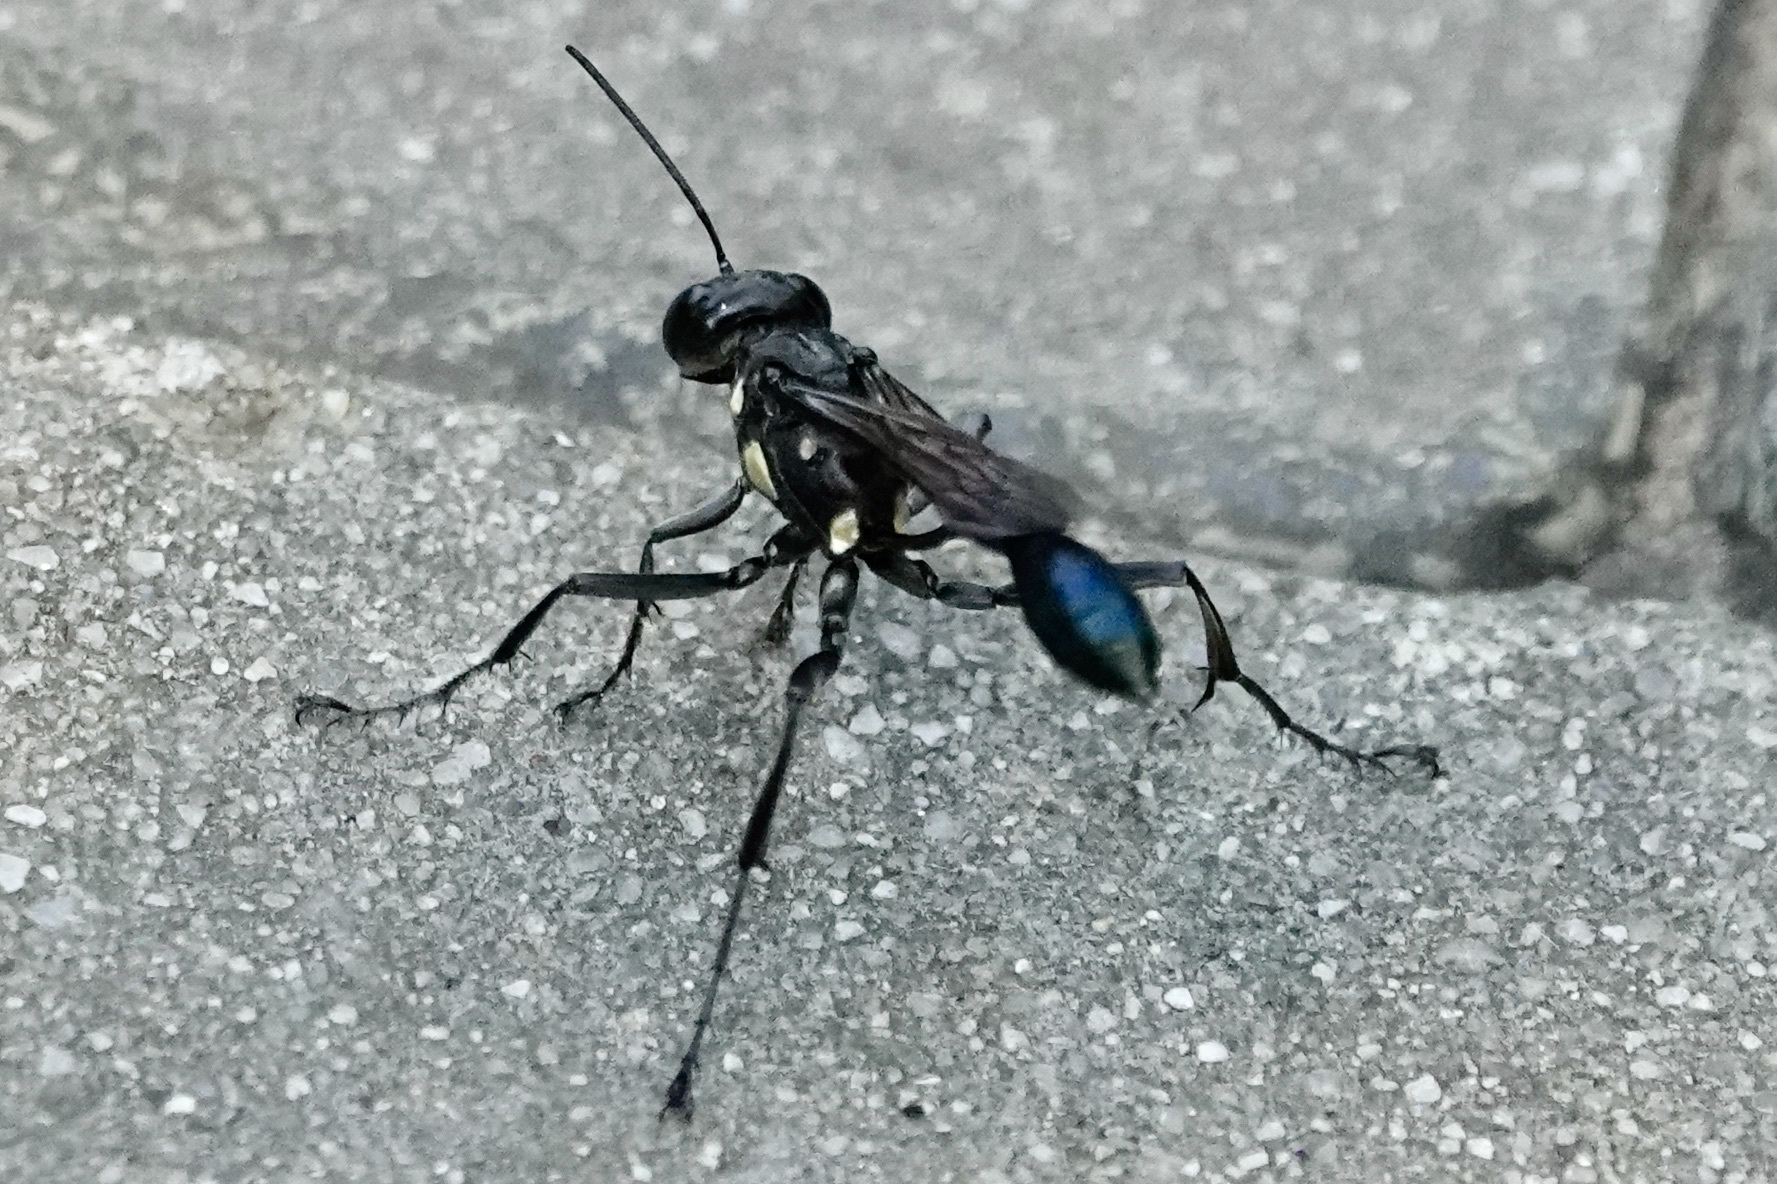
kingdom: Animalia
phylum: Arthropoda
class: Insecta
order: Hymenoptera
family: Sphecidae
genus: Eremnophila
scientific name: Eremnophila aureonotata
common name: Gold-marked thread-waisted wasp
